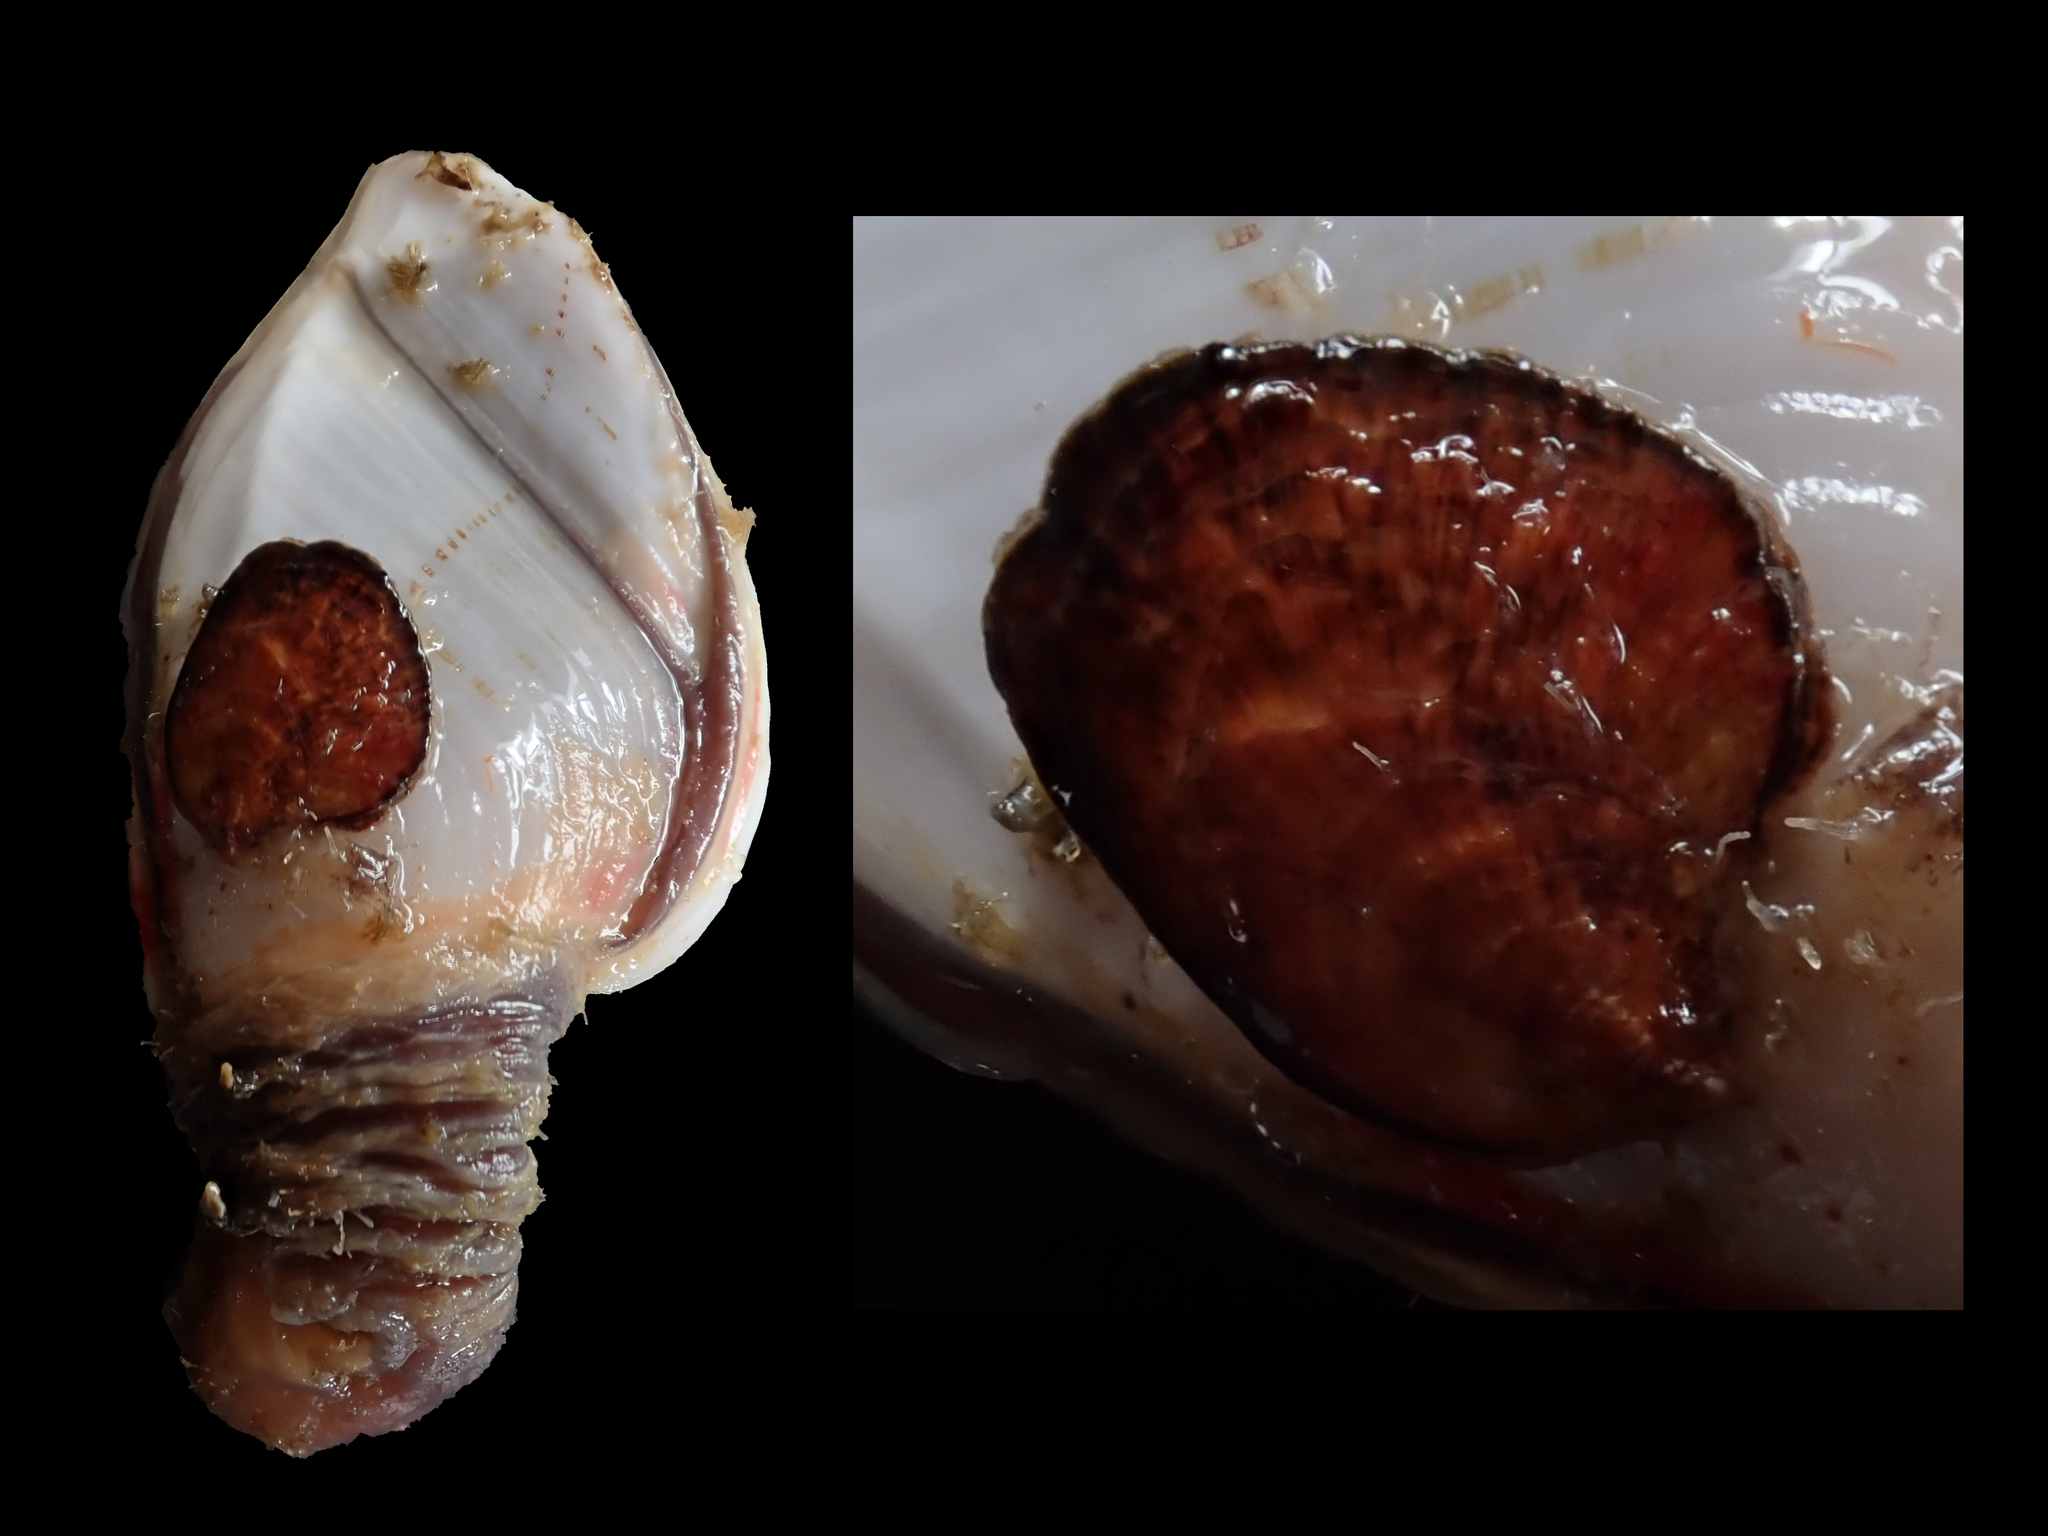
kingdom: Animalia
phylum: Mollusca
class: Bivalvia
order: Ostreida
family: Ostreidae
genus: Planostrea
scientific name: Planostrea pestigris
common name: Flat oyster
